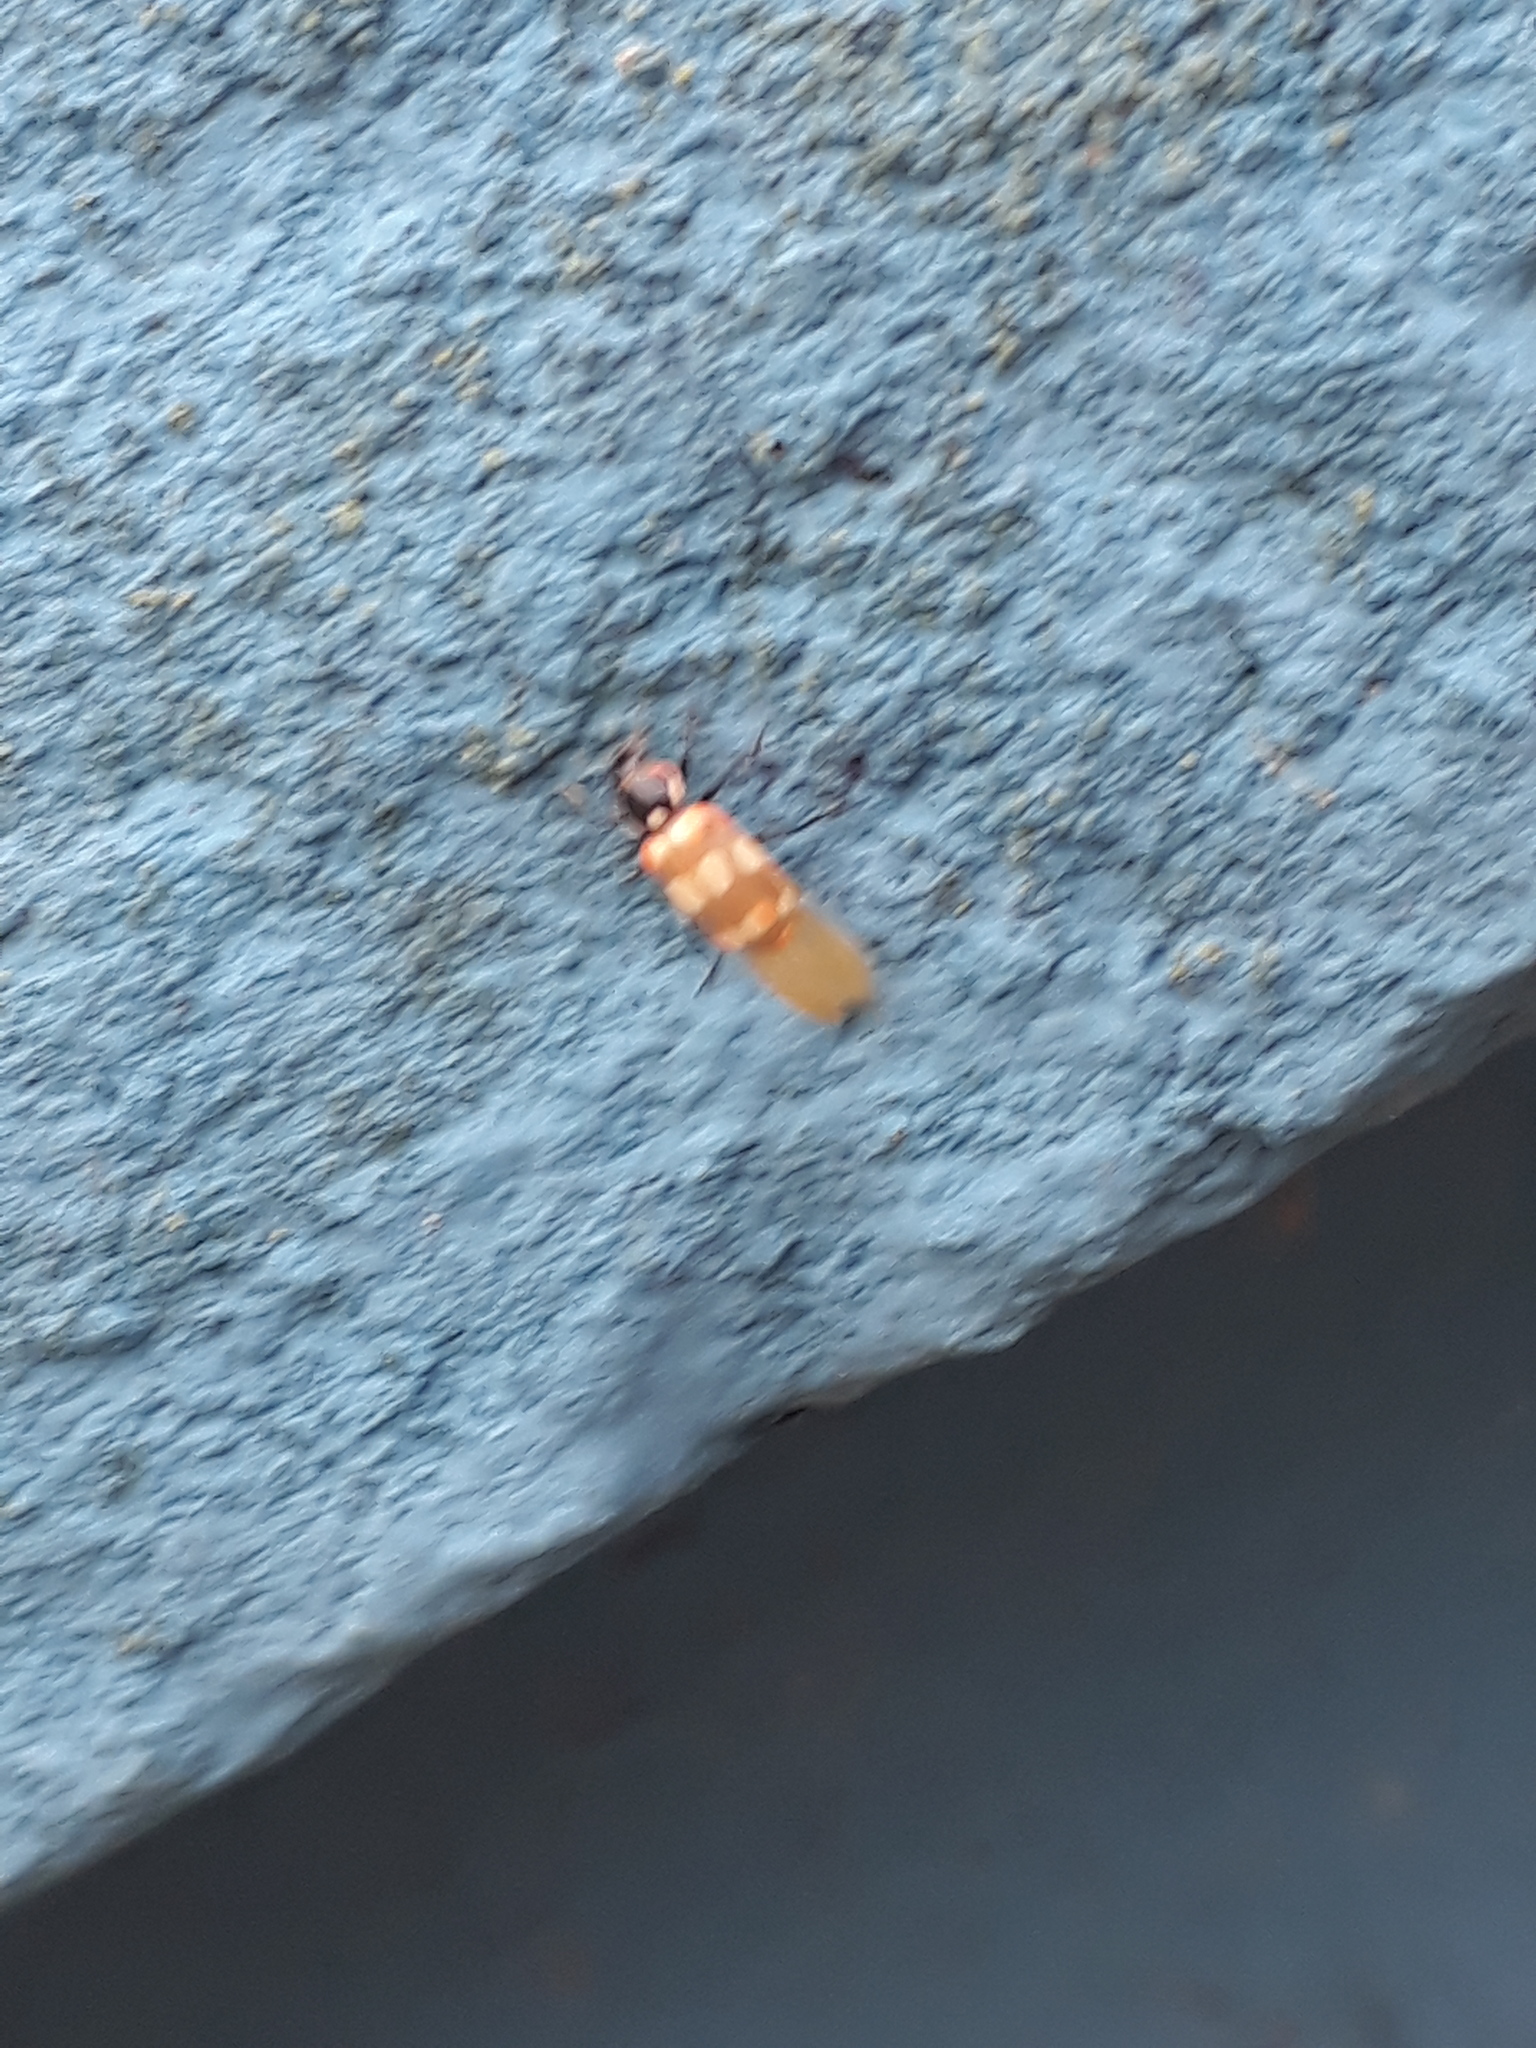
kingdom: Animalia
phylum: Arthropoda
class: Insecta
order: Coleoptera
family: Coccinellidae
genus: Eriopis
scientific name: Eriopis connexa
